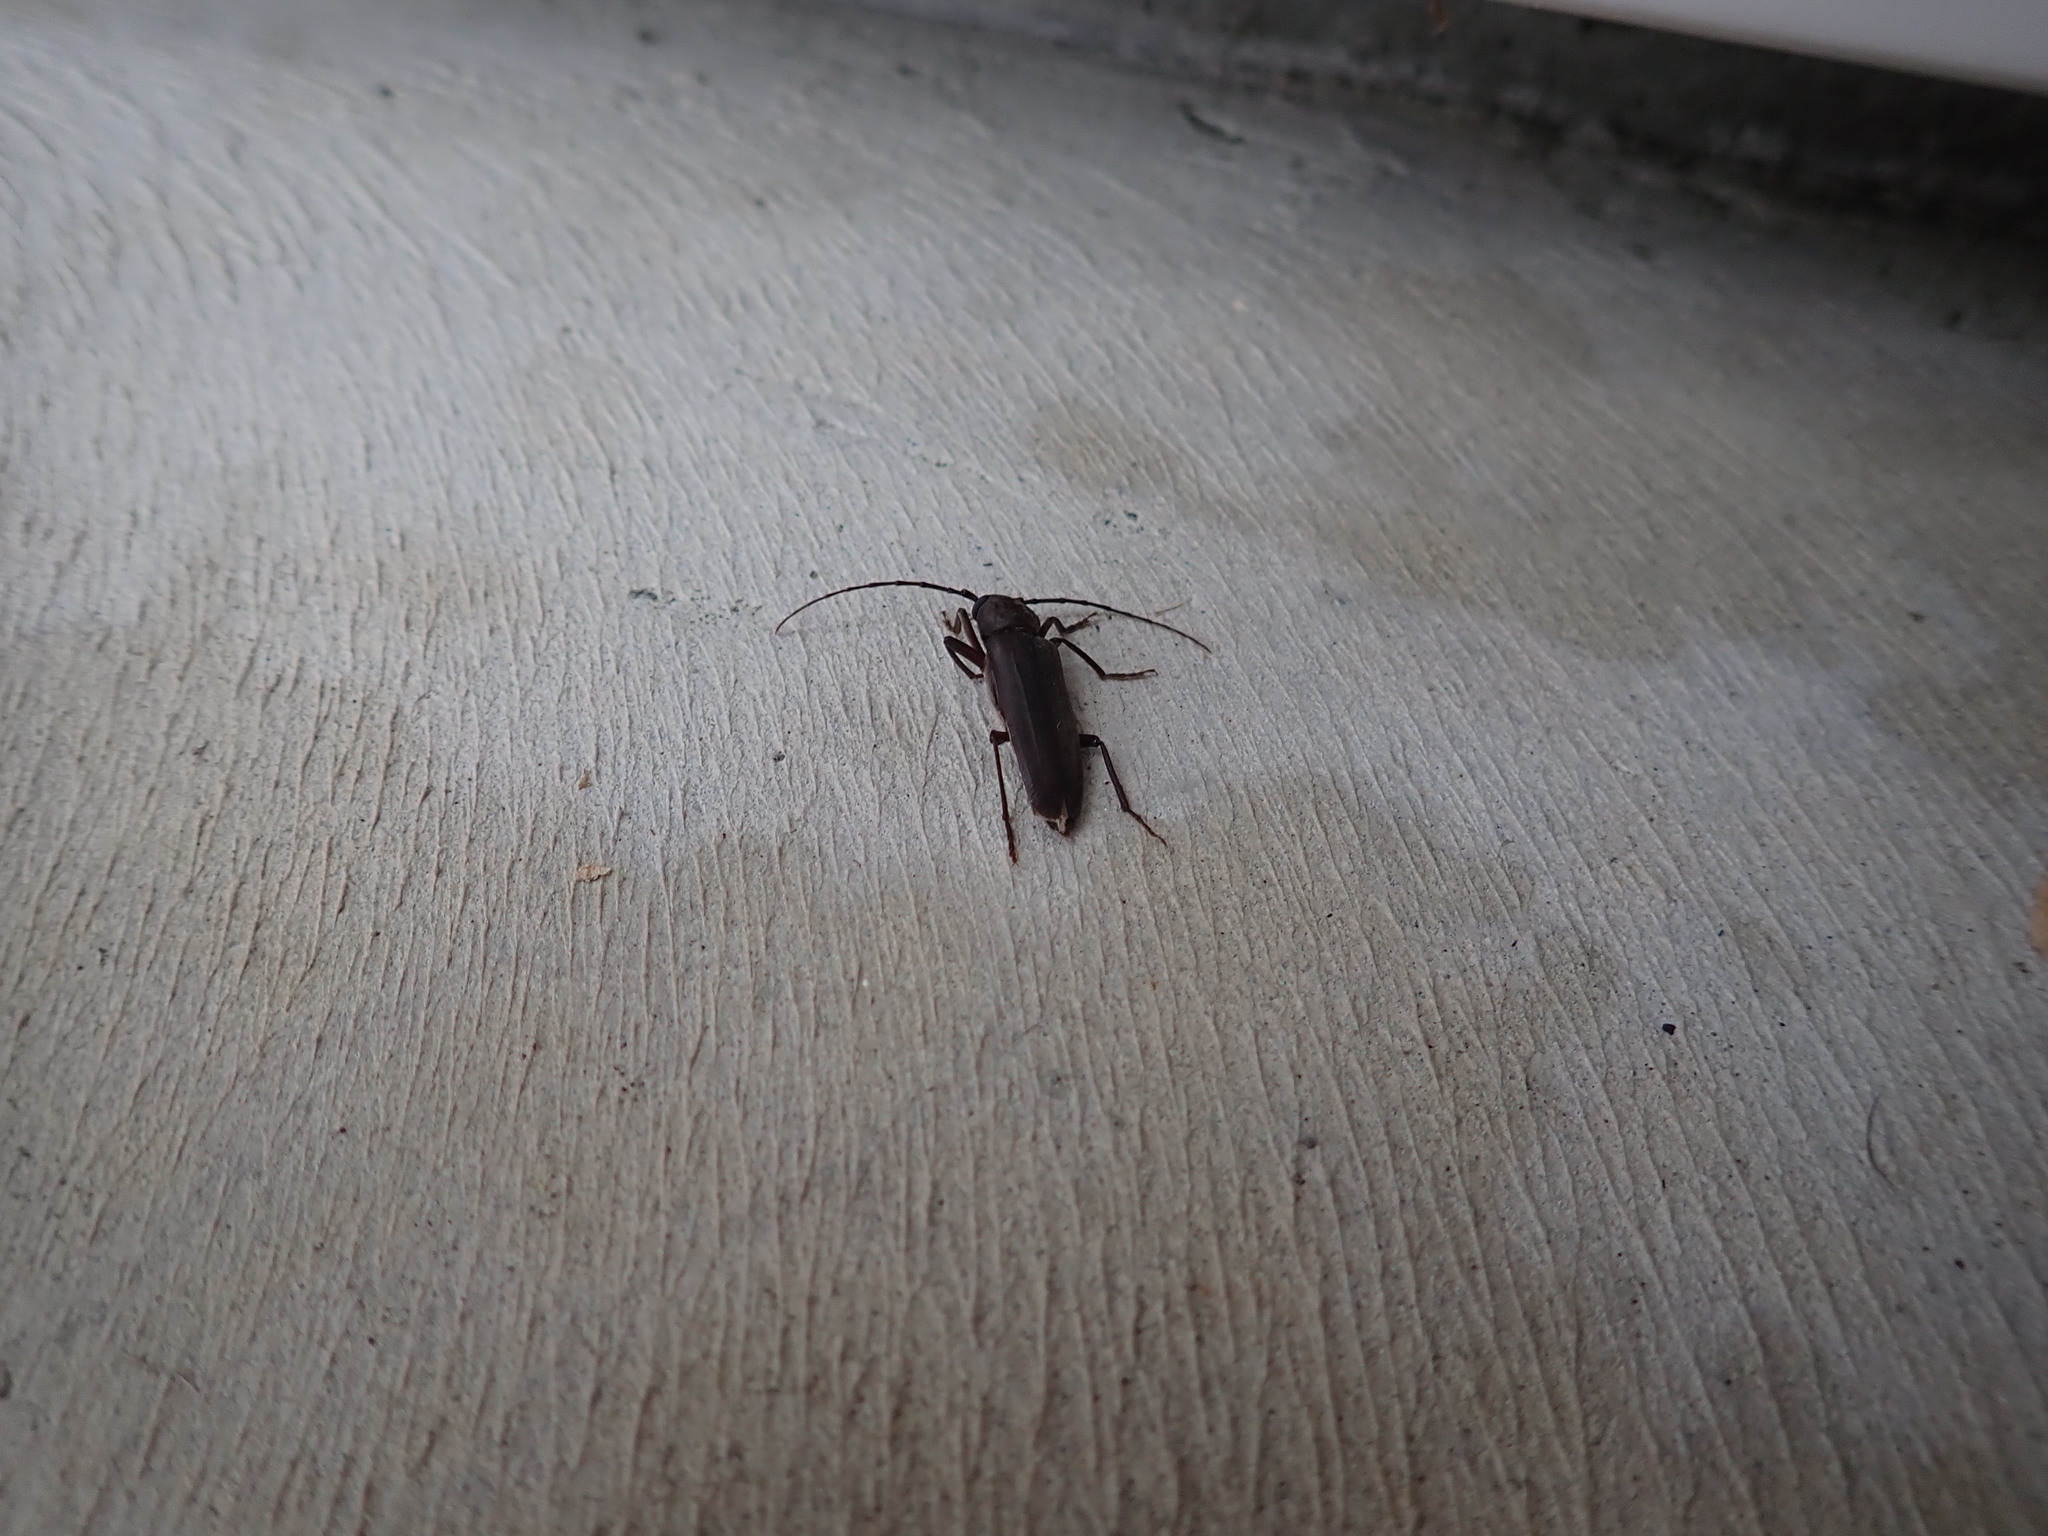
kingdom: Animalia
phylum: Arthropoda
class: Insecta
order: Coleoptera
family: Cerambycidae
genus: Arhopalus
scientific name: Arhopalus ferus
